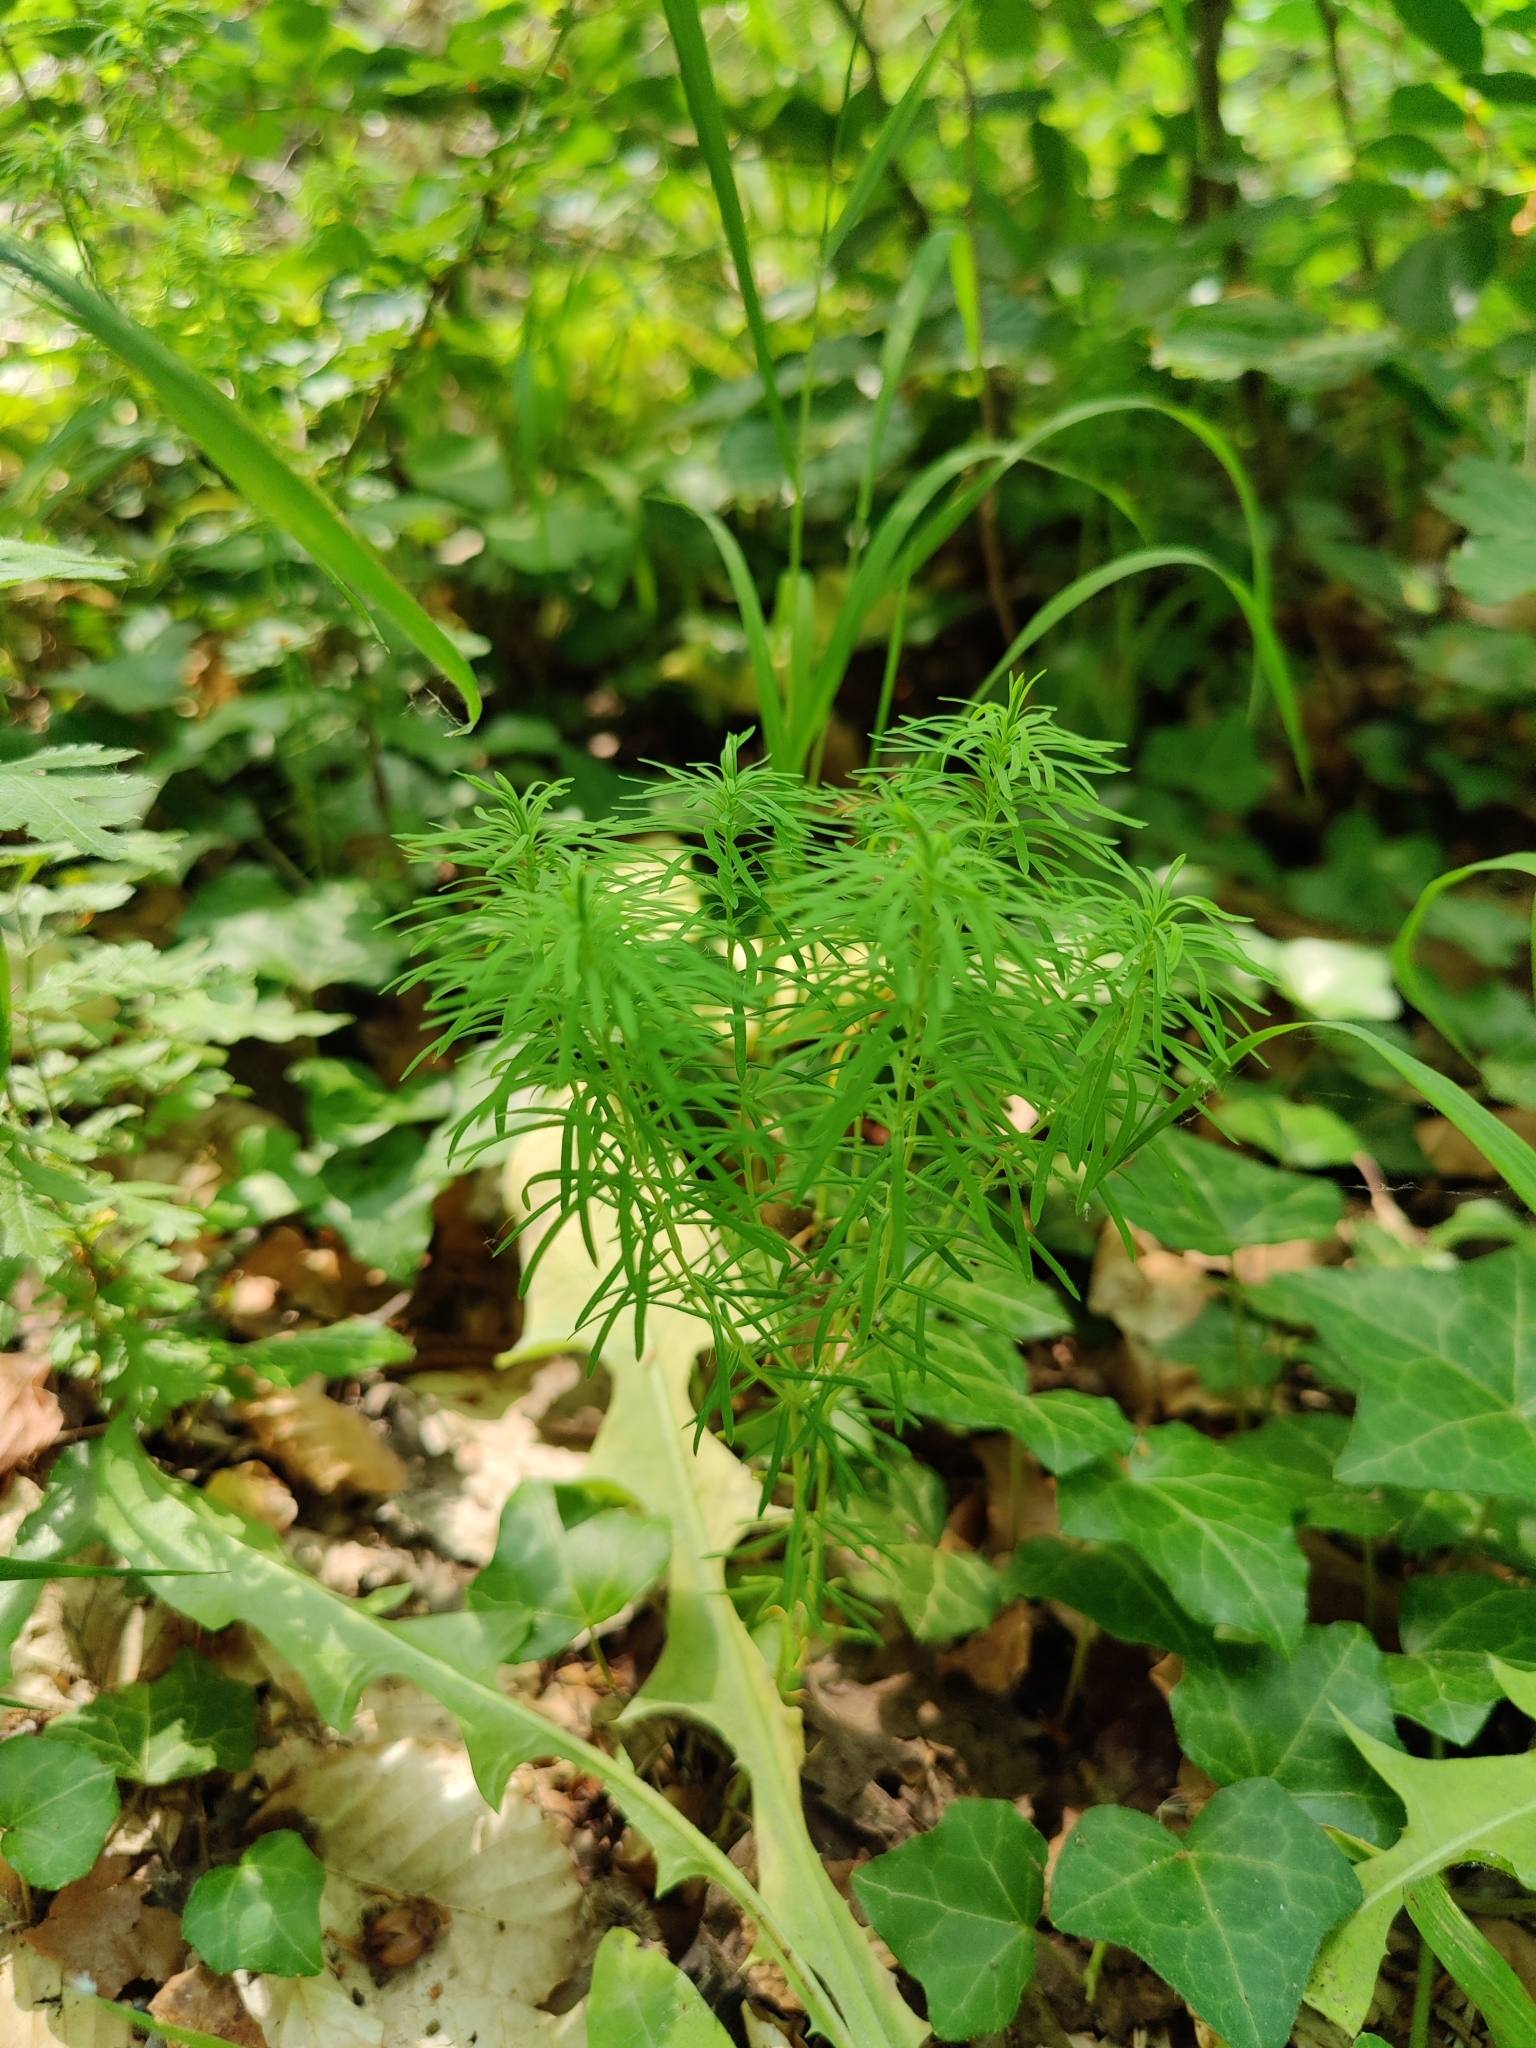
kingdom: Plantae
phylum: Tracheophyta
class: Magnoliopsida
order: Malpighiales
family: Euphorbiaceae
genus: Euphorbia
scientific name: Euphorbia cyparissias
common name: Cypress spurge
